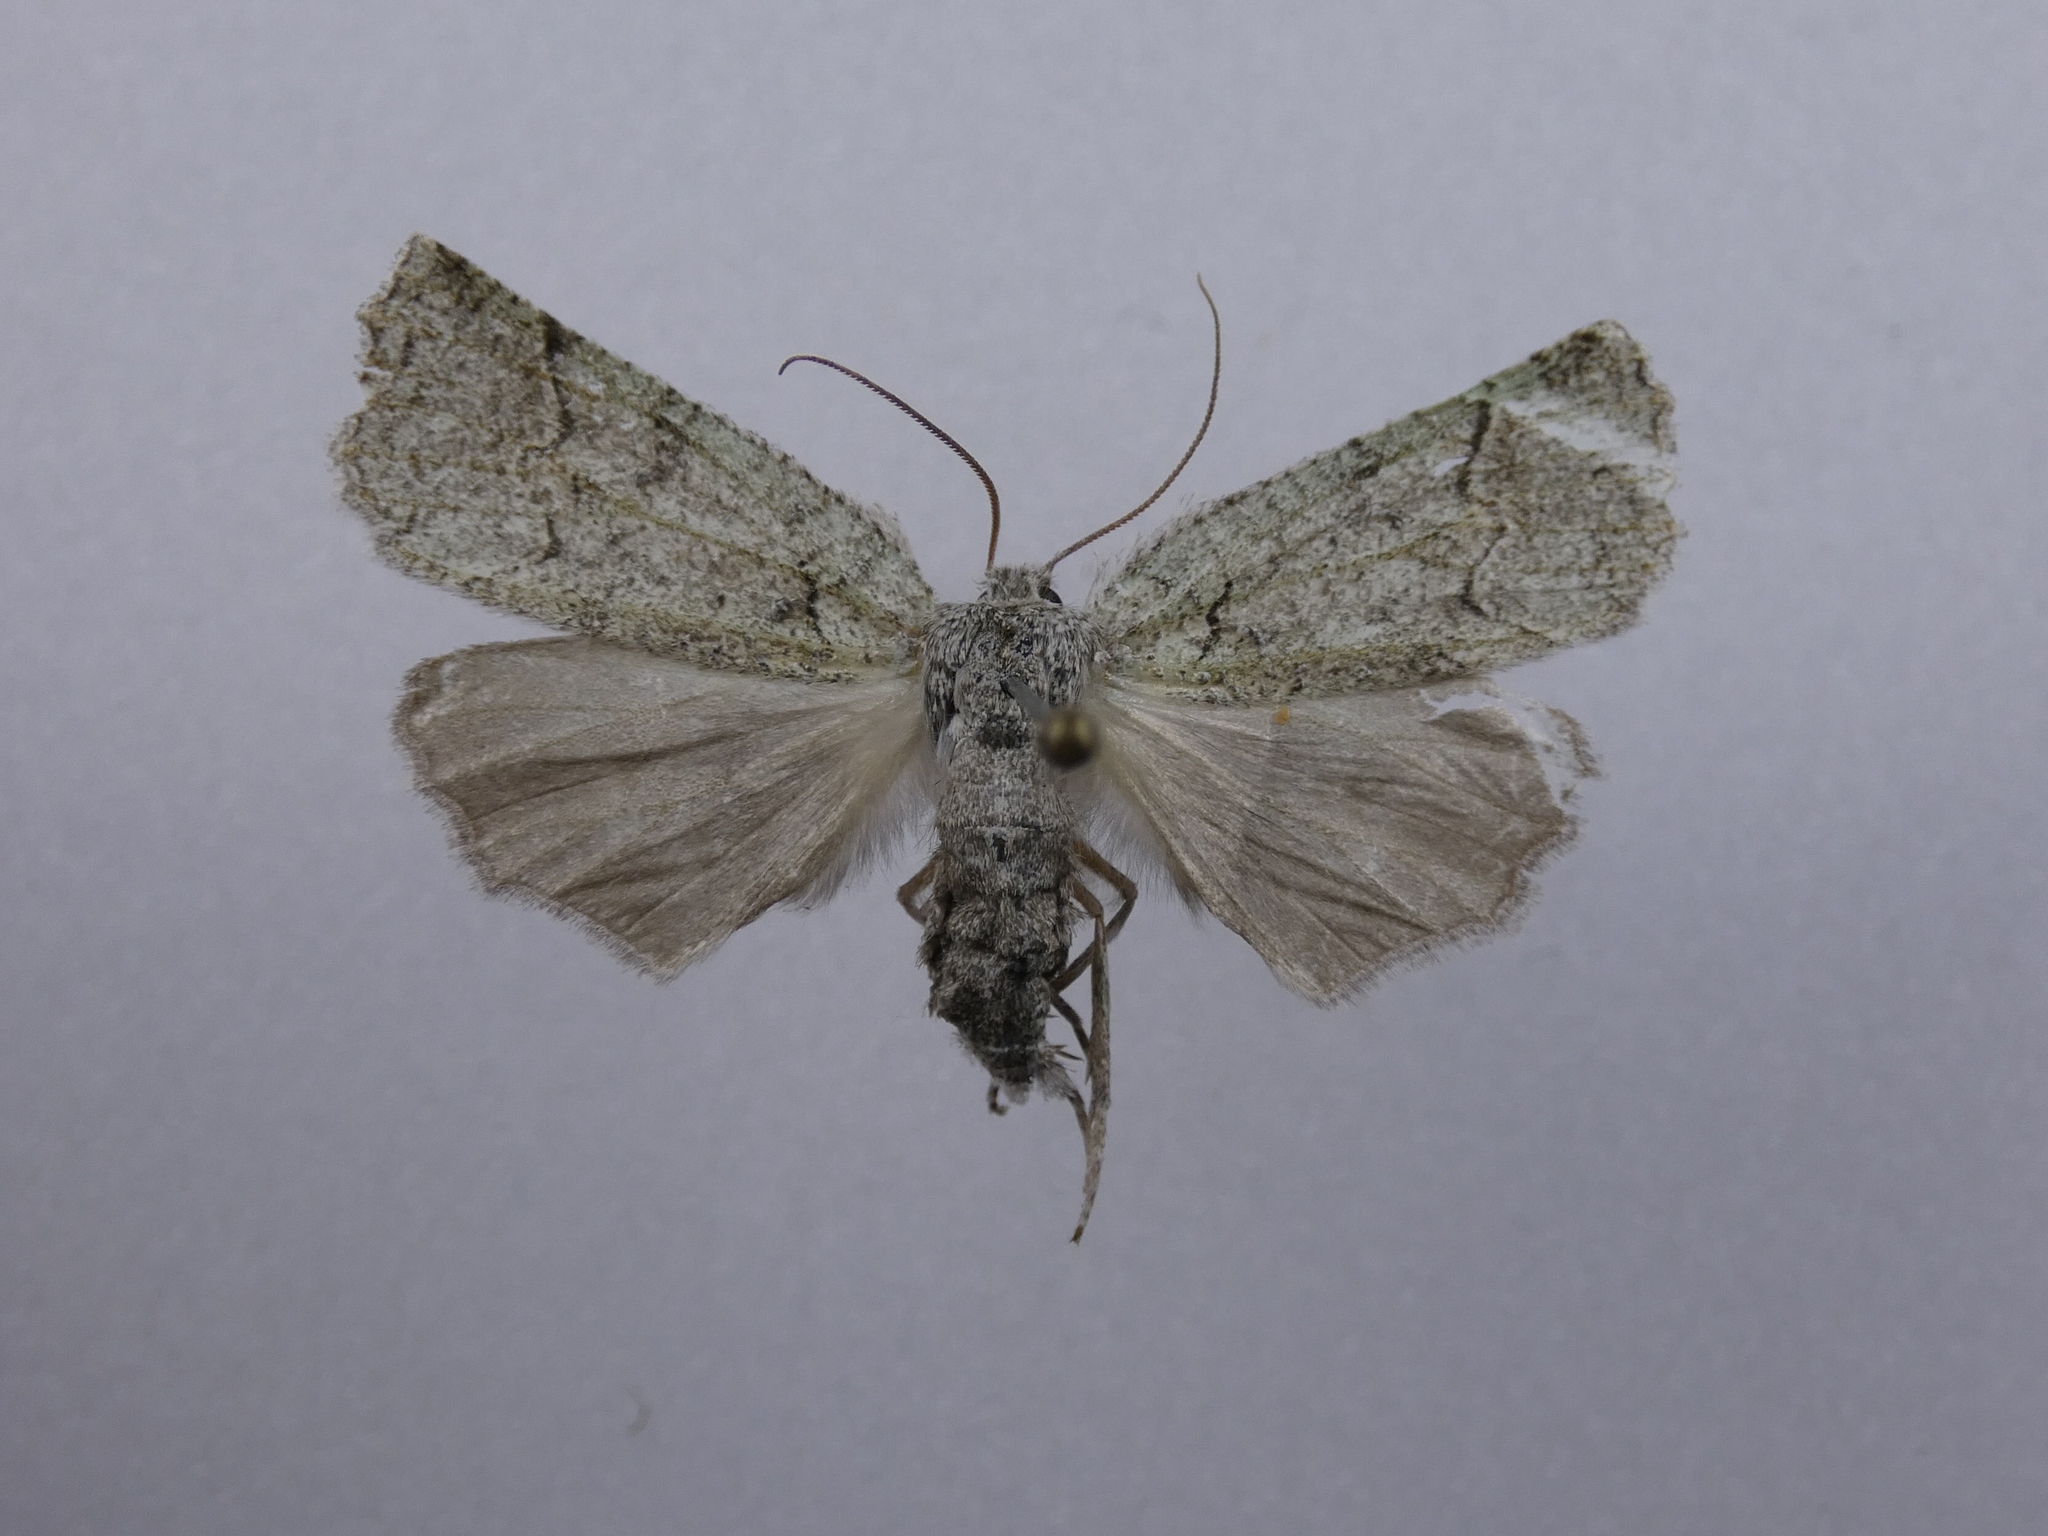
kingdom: Animalia
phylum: Arthropoda
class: Insecta
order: Lepidoptera
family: Geometridae
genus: Declana
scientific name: Declana floccosa
